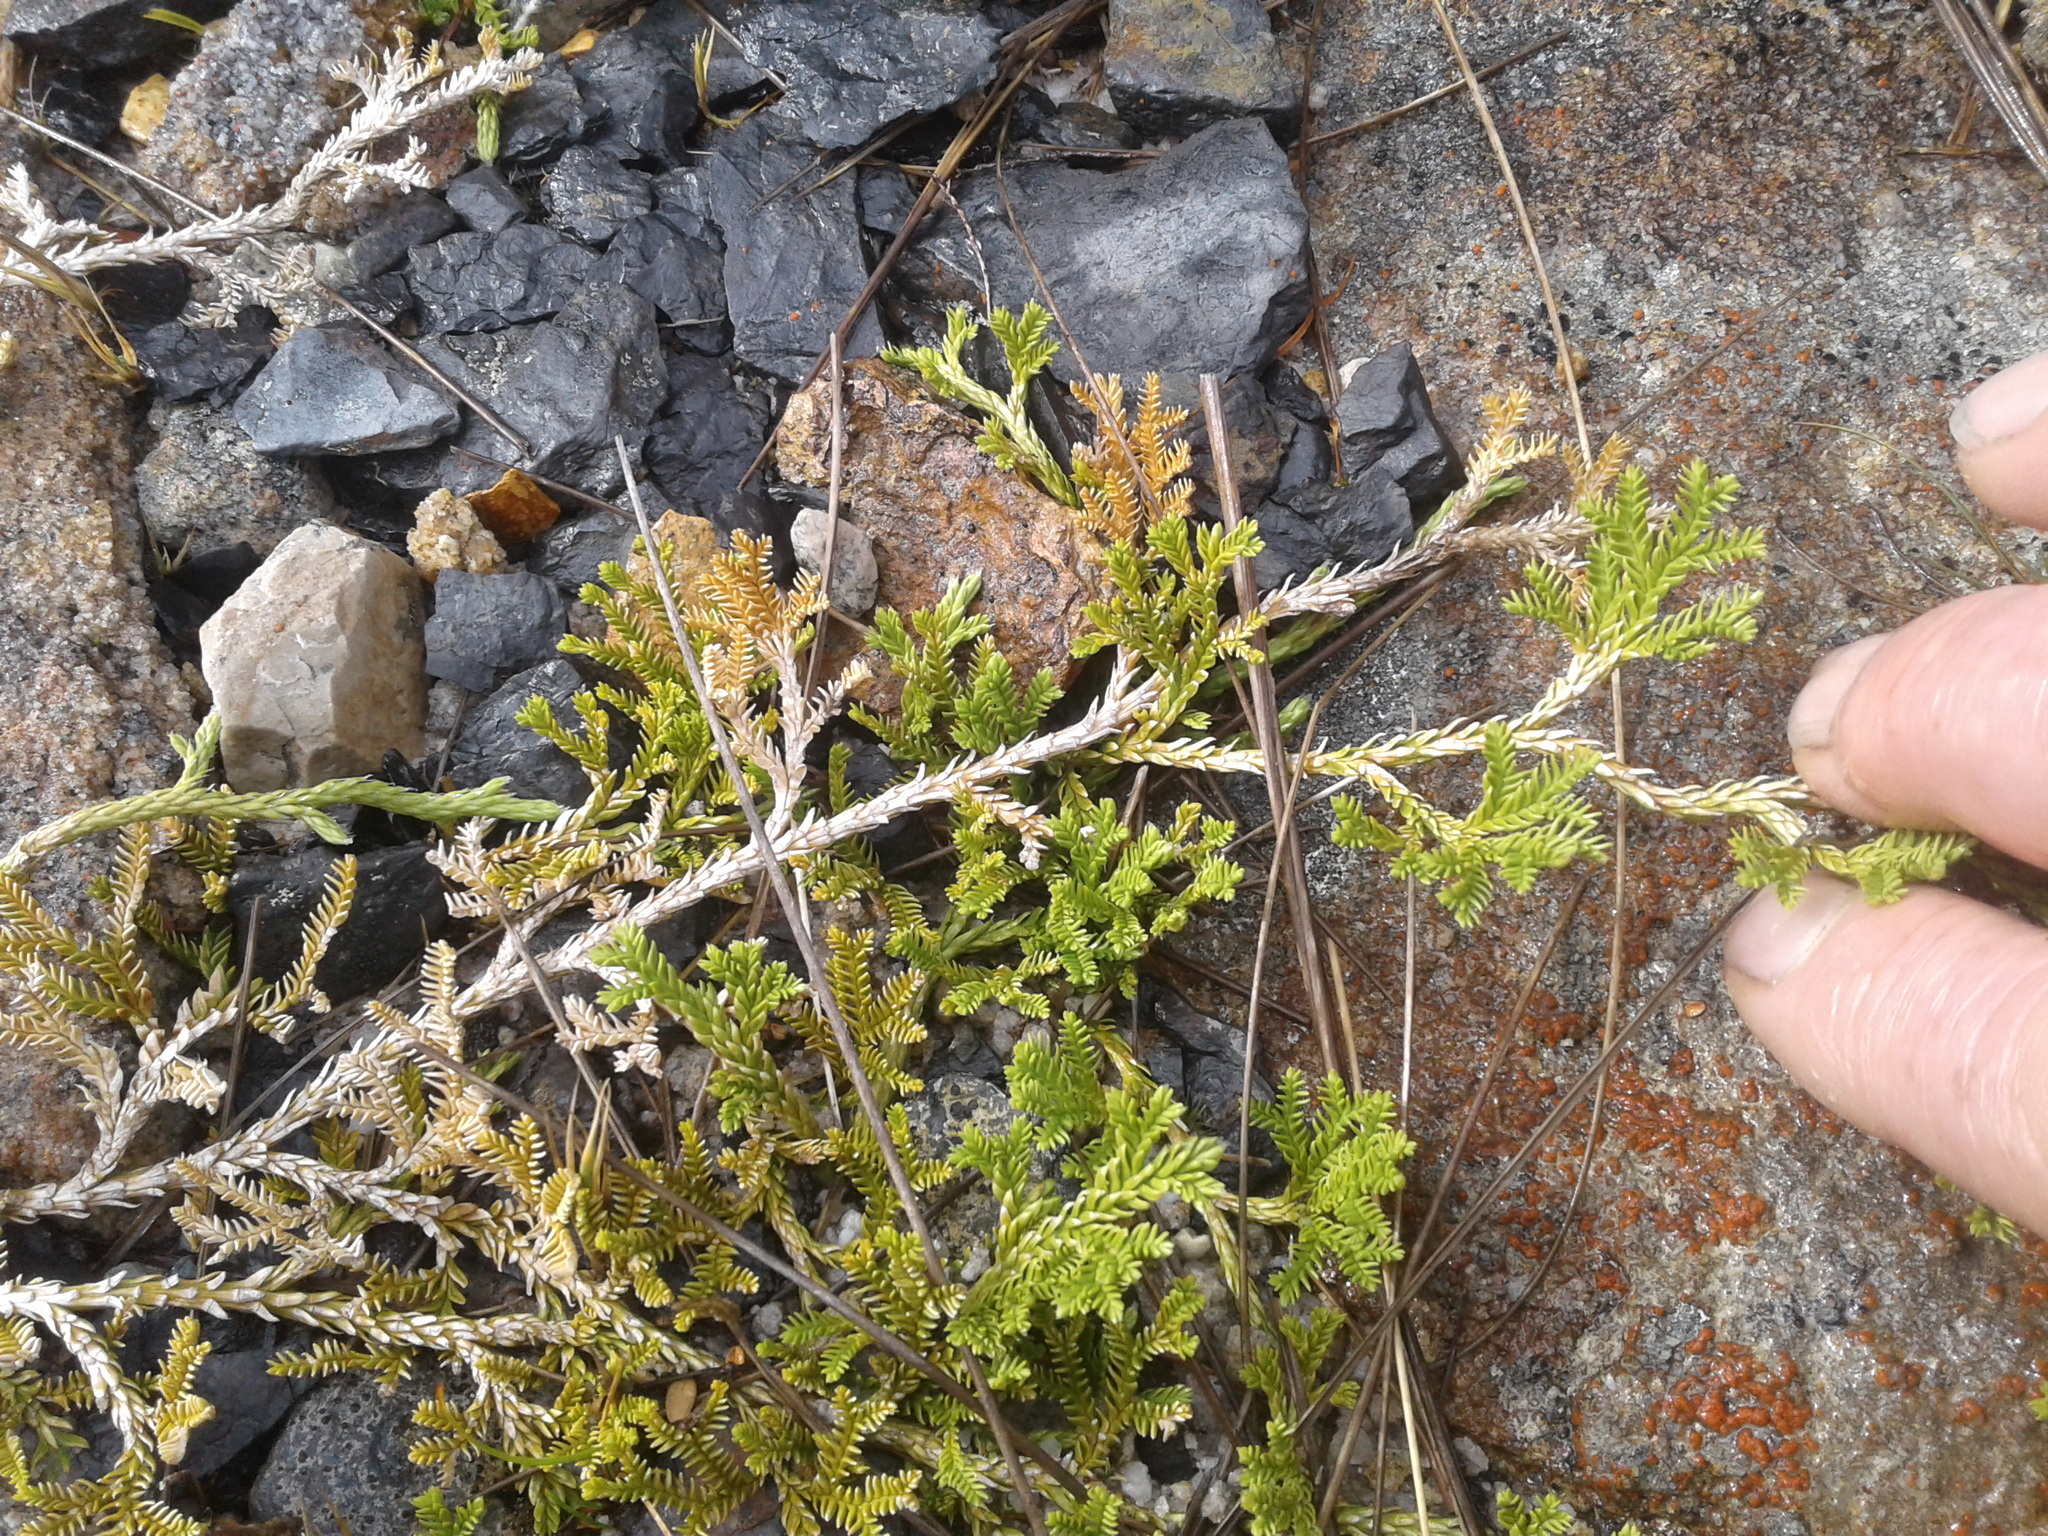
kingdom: Plantae
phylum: Tracheophyta
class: Lycopodiopsida
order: Lycopodiales
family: Lycopodiaceae
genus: Diphasium
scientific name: Diphasium scariosum
